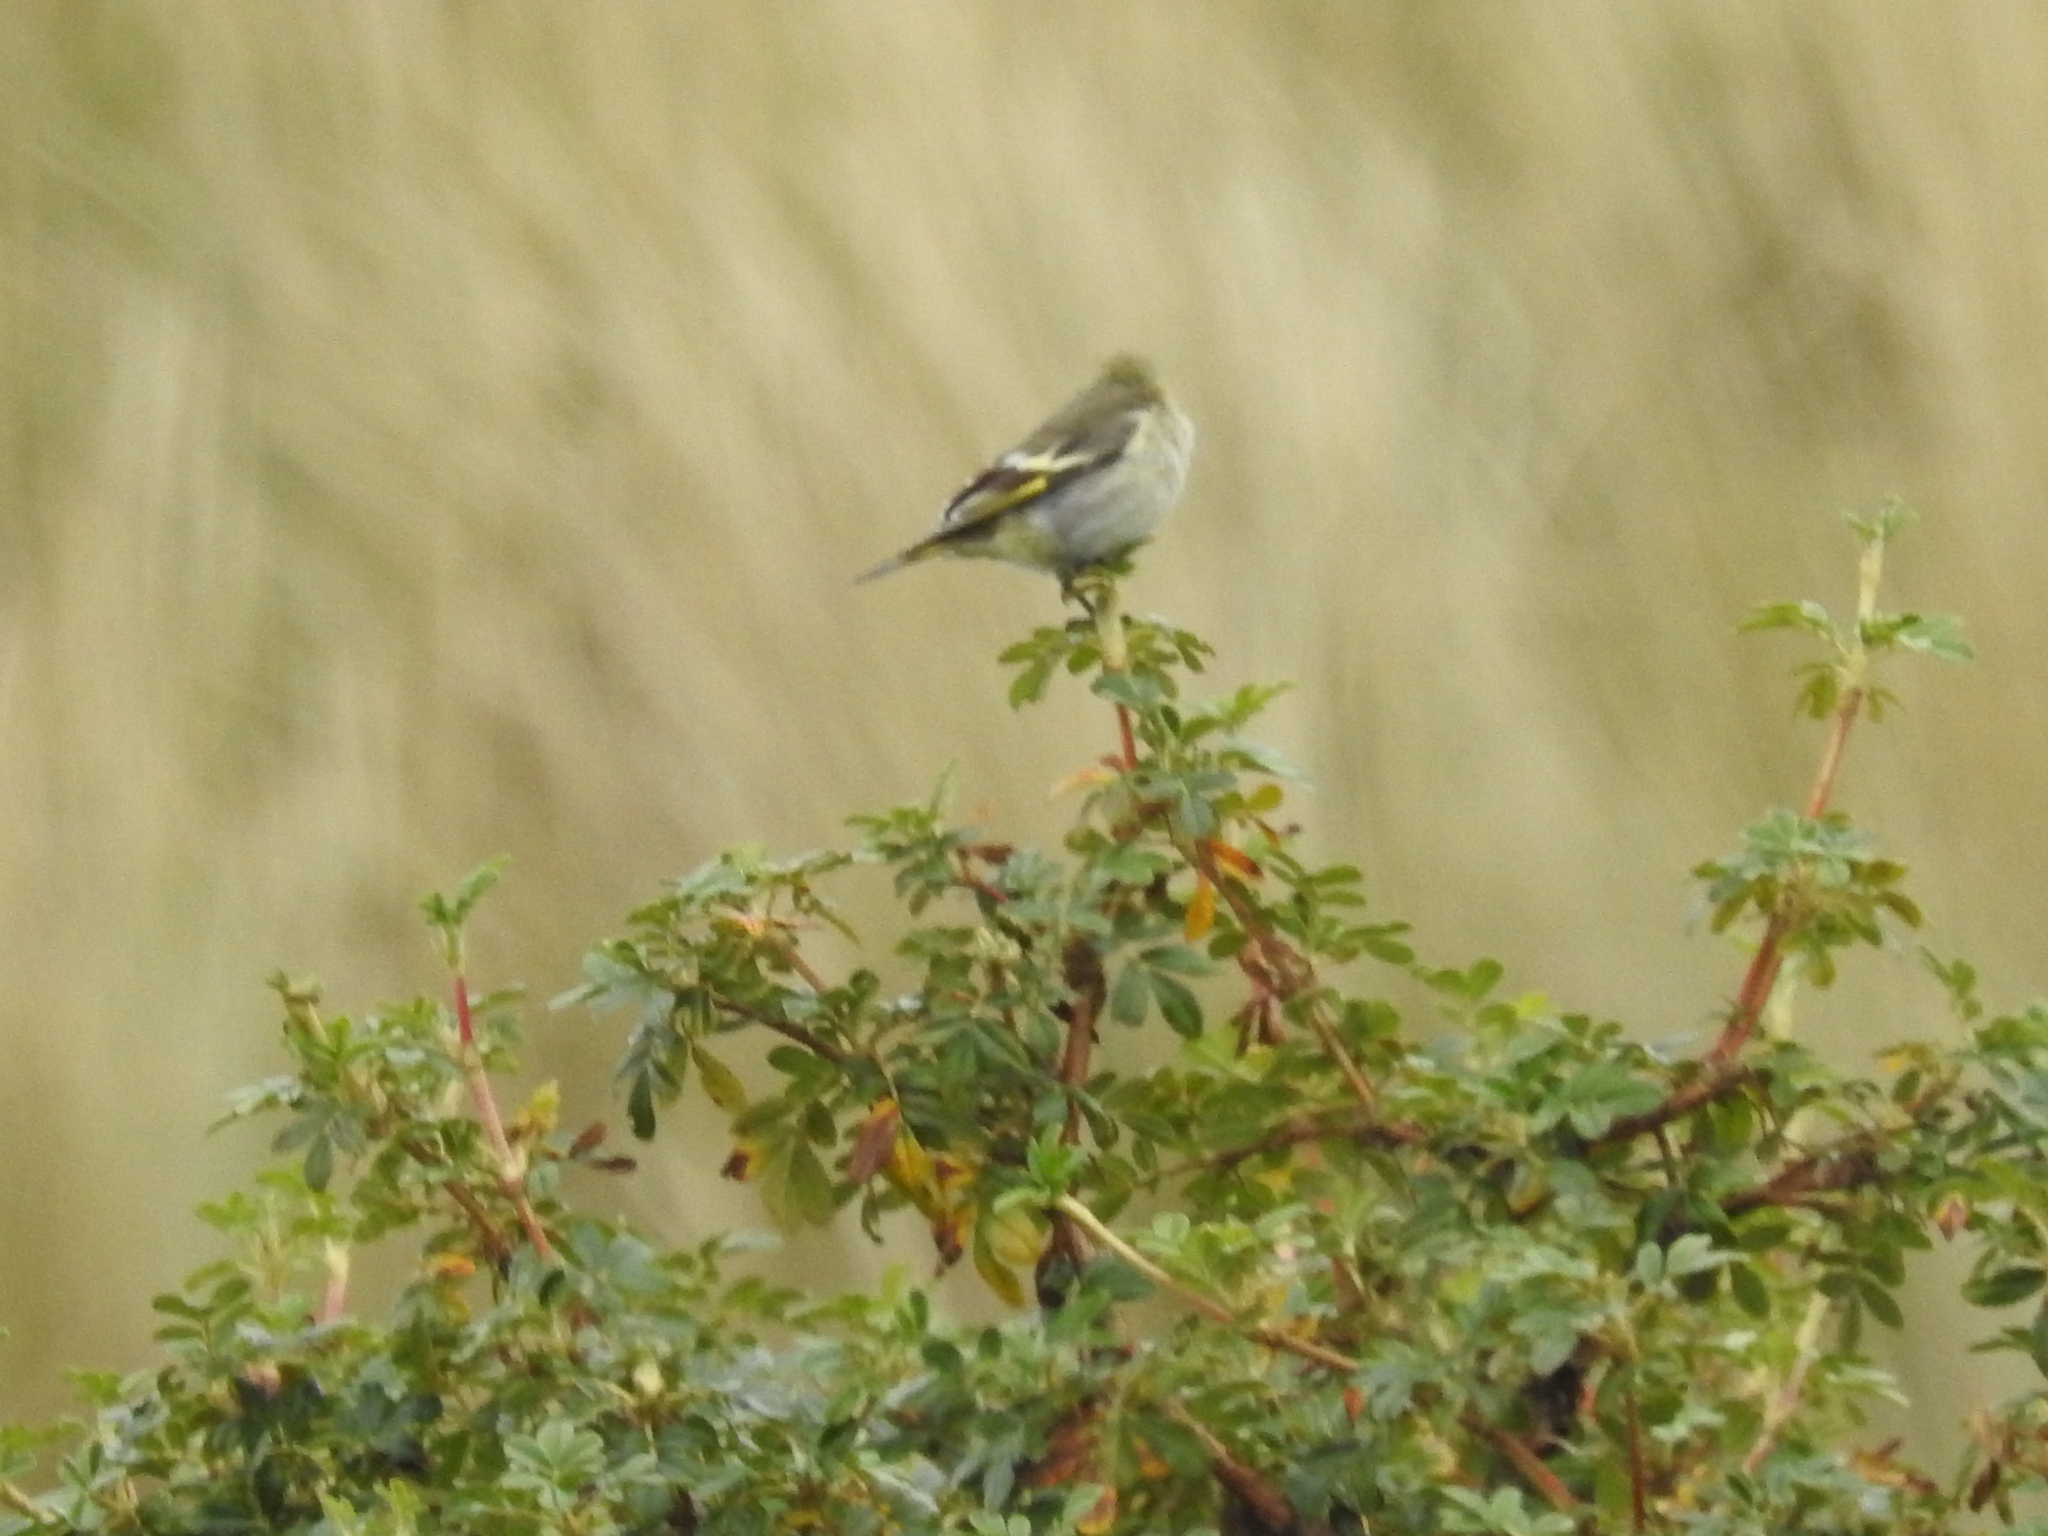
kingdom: Animalia
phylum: Chordata
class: Aves
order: Passeriformes
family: Fringillidae
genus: Spinus
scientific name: Spinus magellanicus
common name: Hooded siskin
